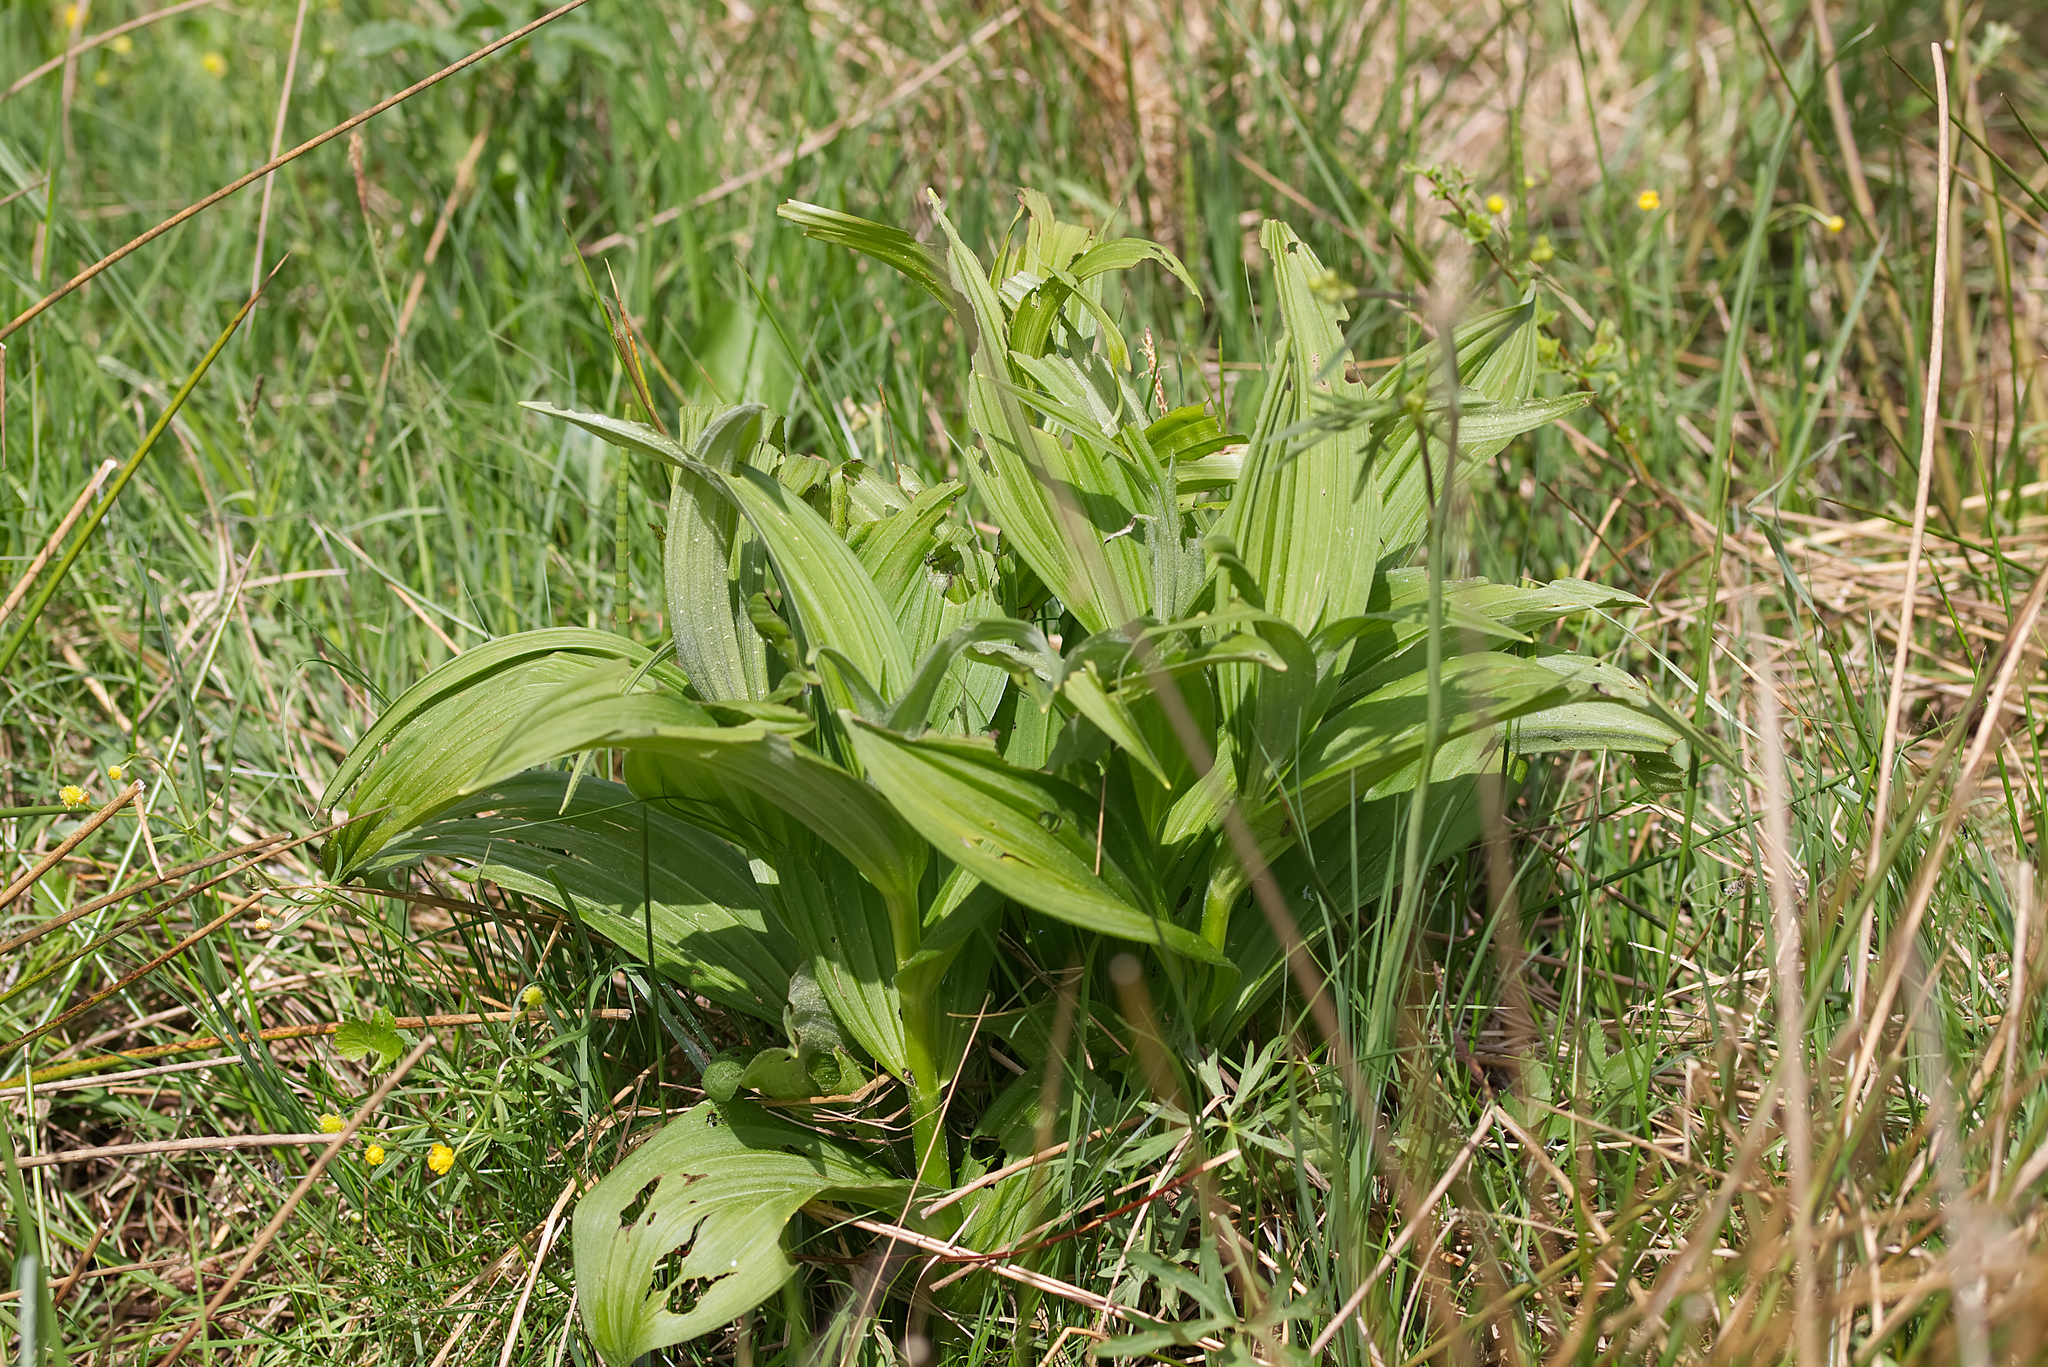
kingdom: Plantae
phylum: Tracheophyta
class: Liliopsida
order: Liliales
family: Melanthiaceae
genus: Veratrum
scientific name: Veratrum album
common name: White veratrum
